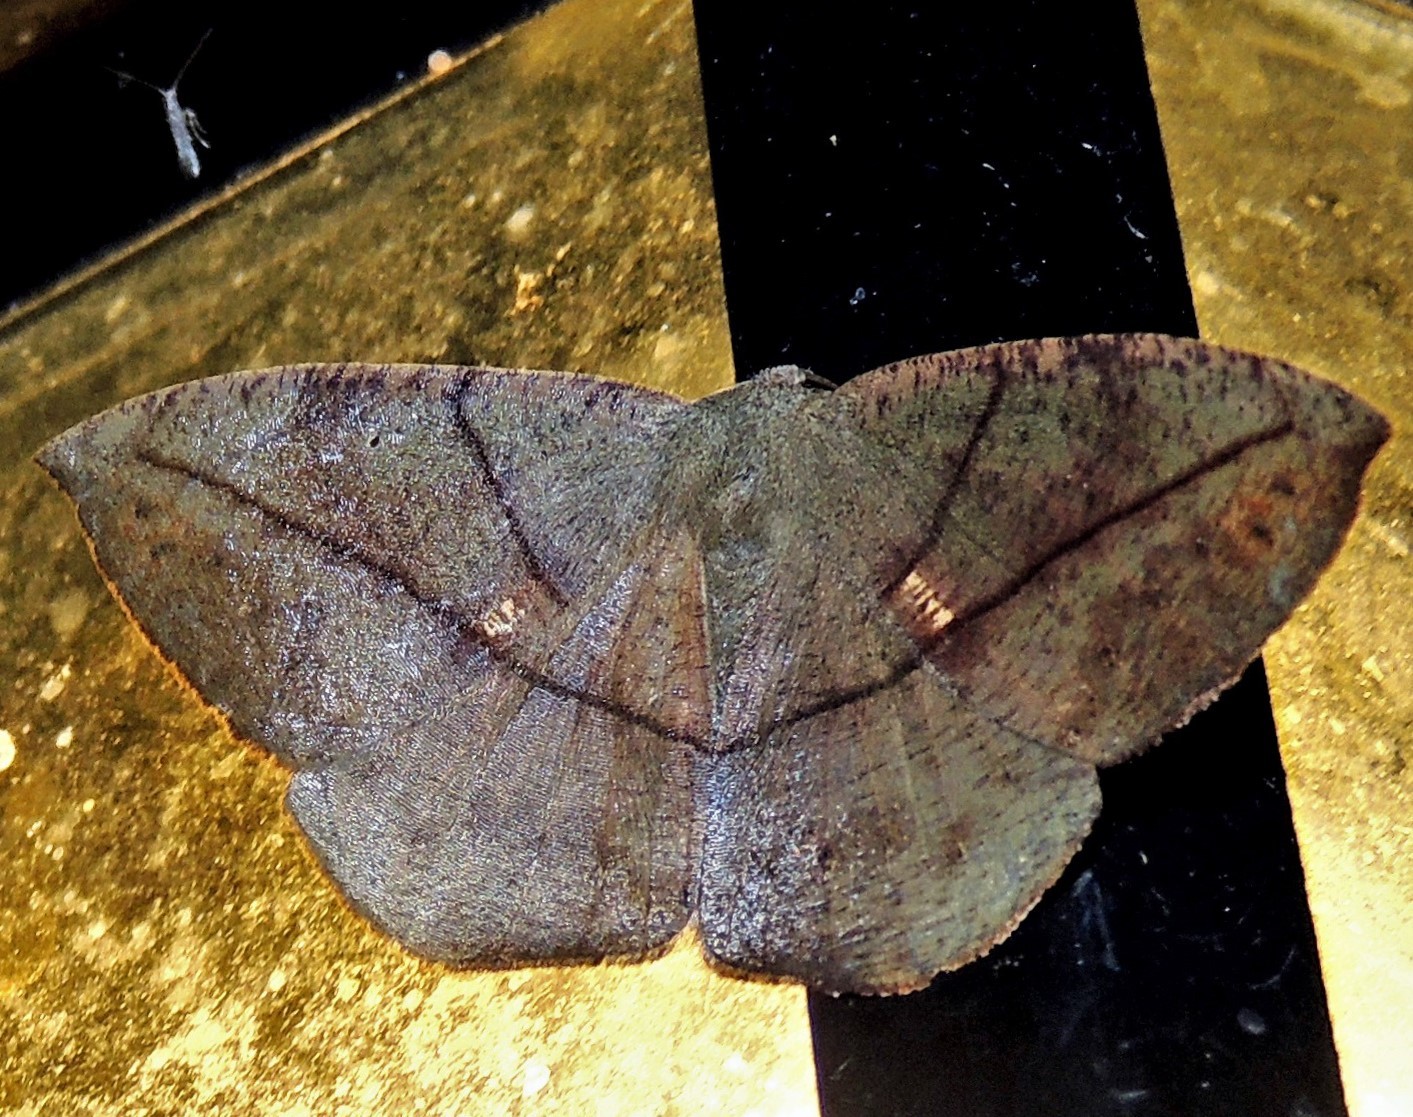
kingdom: Animalia
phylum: Arthropoda
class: Insecta
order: Lepidoptera
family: Geometridae
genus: Oxydia
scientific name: Oxydia trychiata
